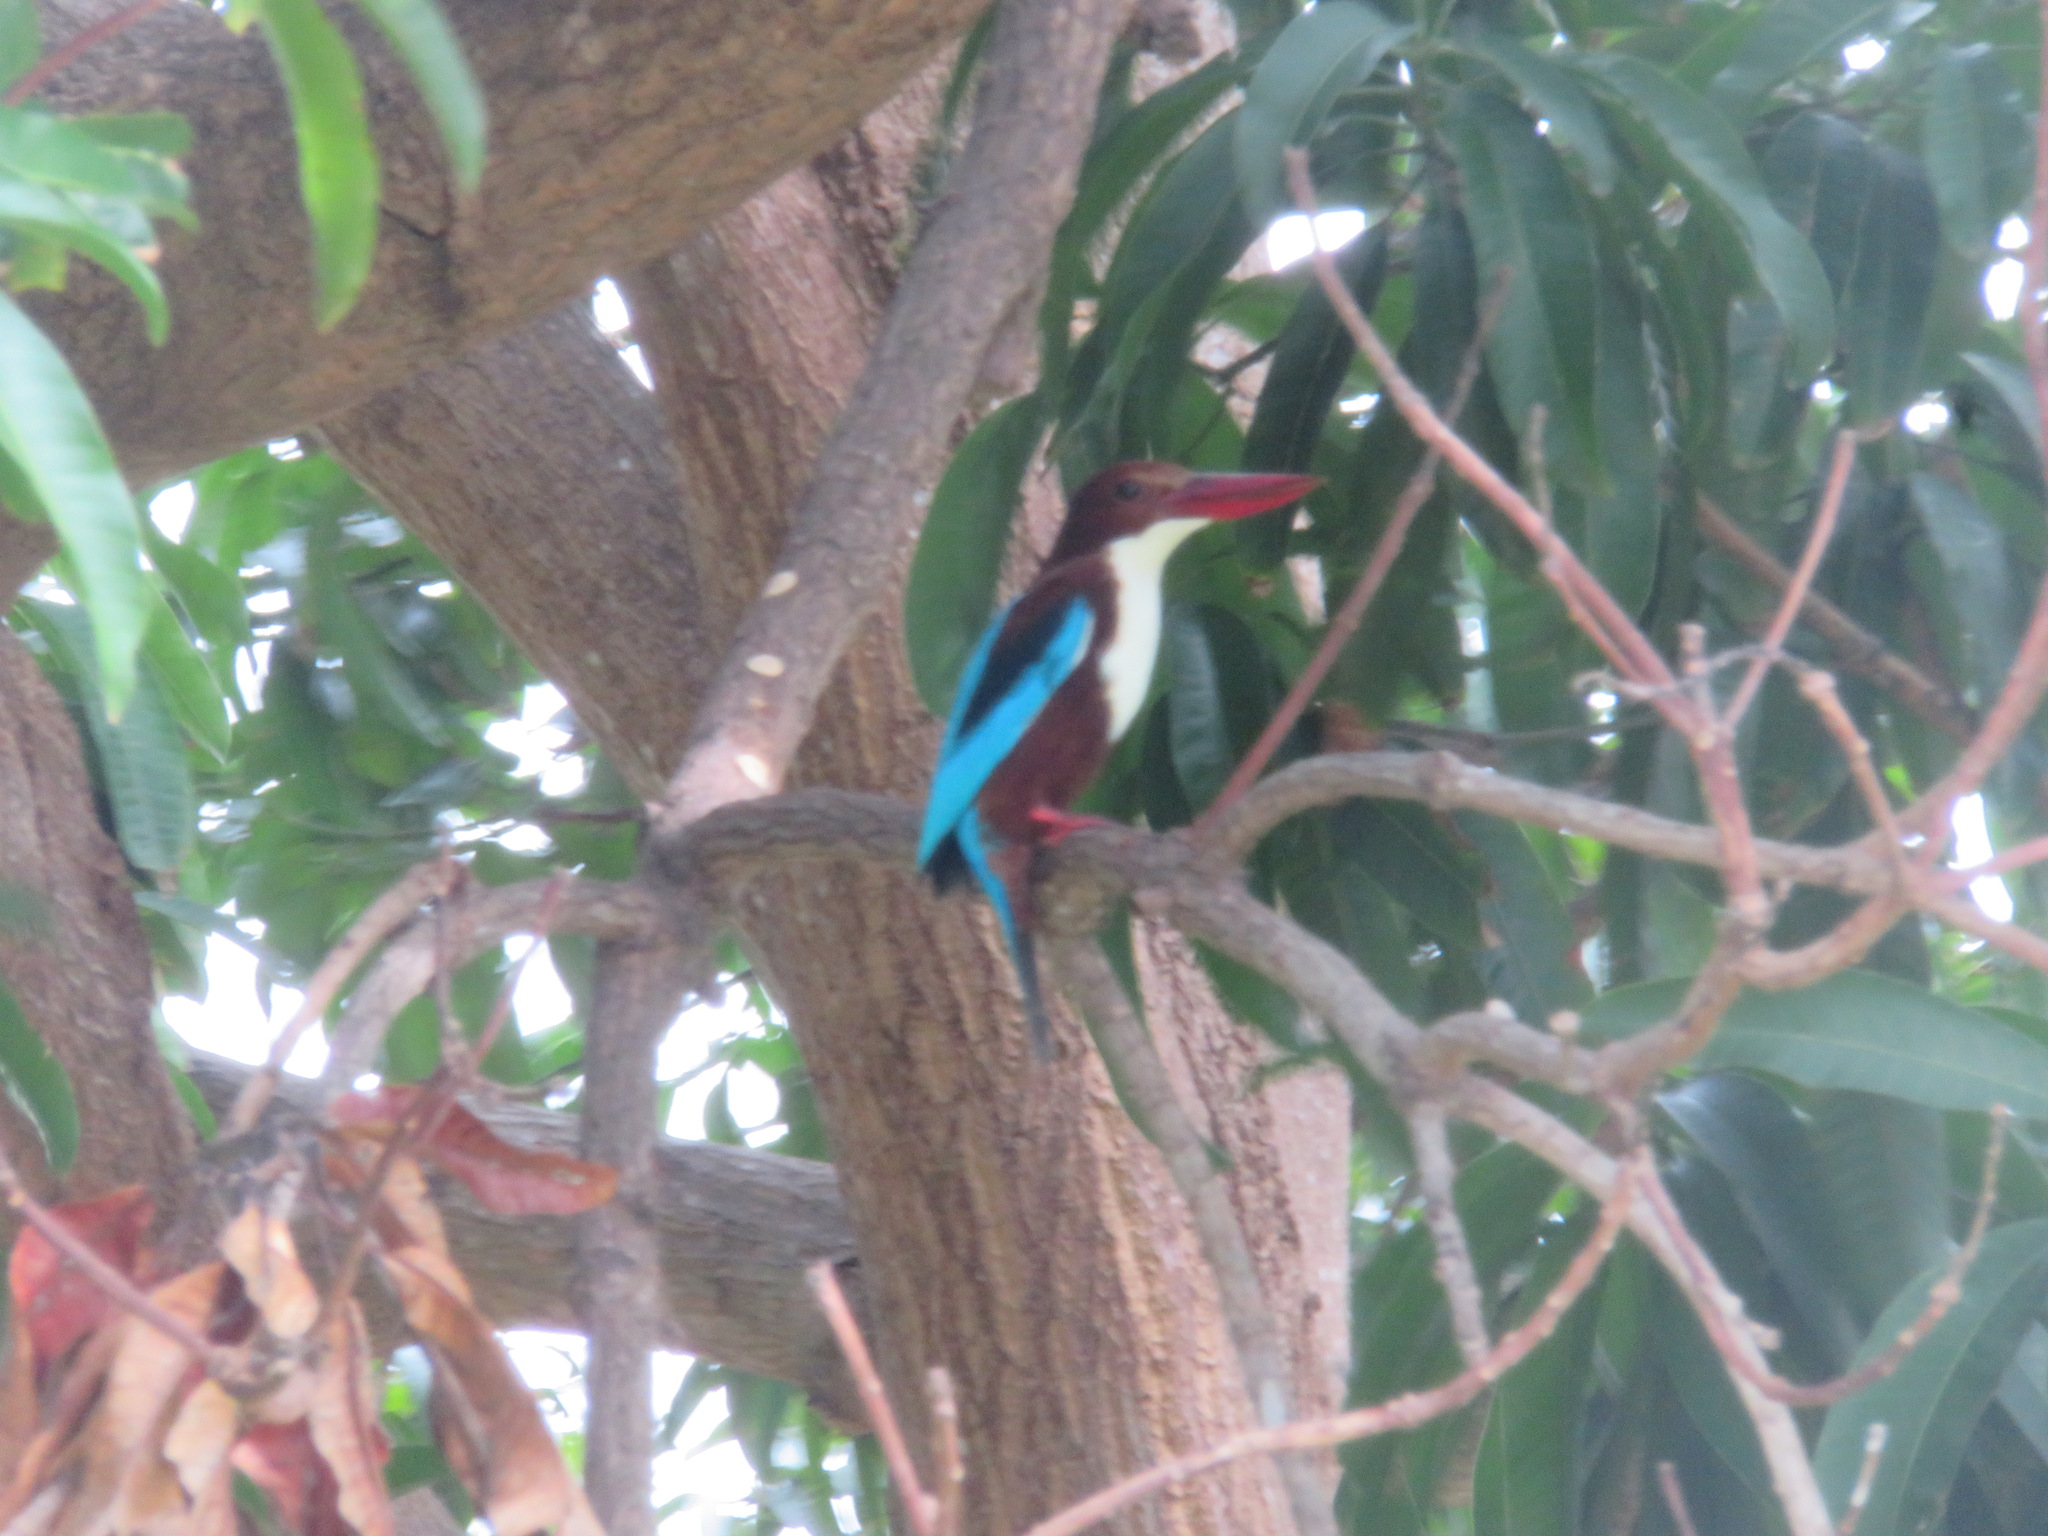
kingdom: Animalia
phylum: Chordata
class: Aves
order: Coraciiformes
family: Alcedinidae
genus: Halcyon
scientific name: Halcyon smyrnensis
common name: White-throated kingfisher
